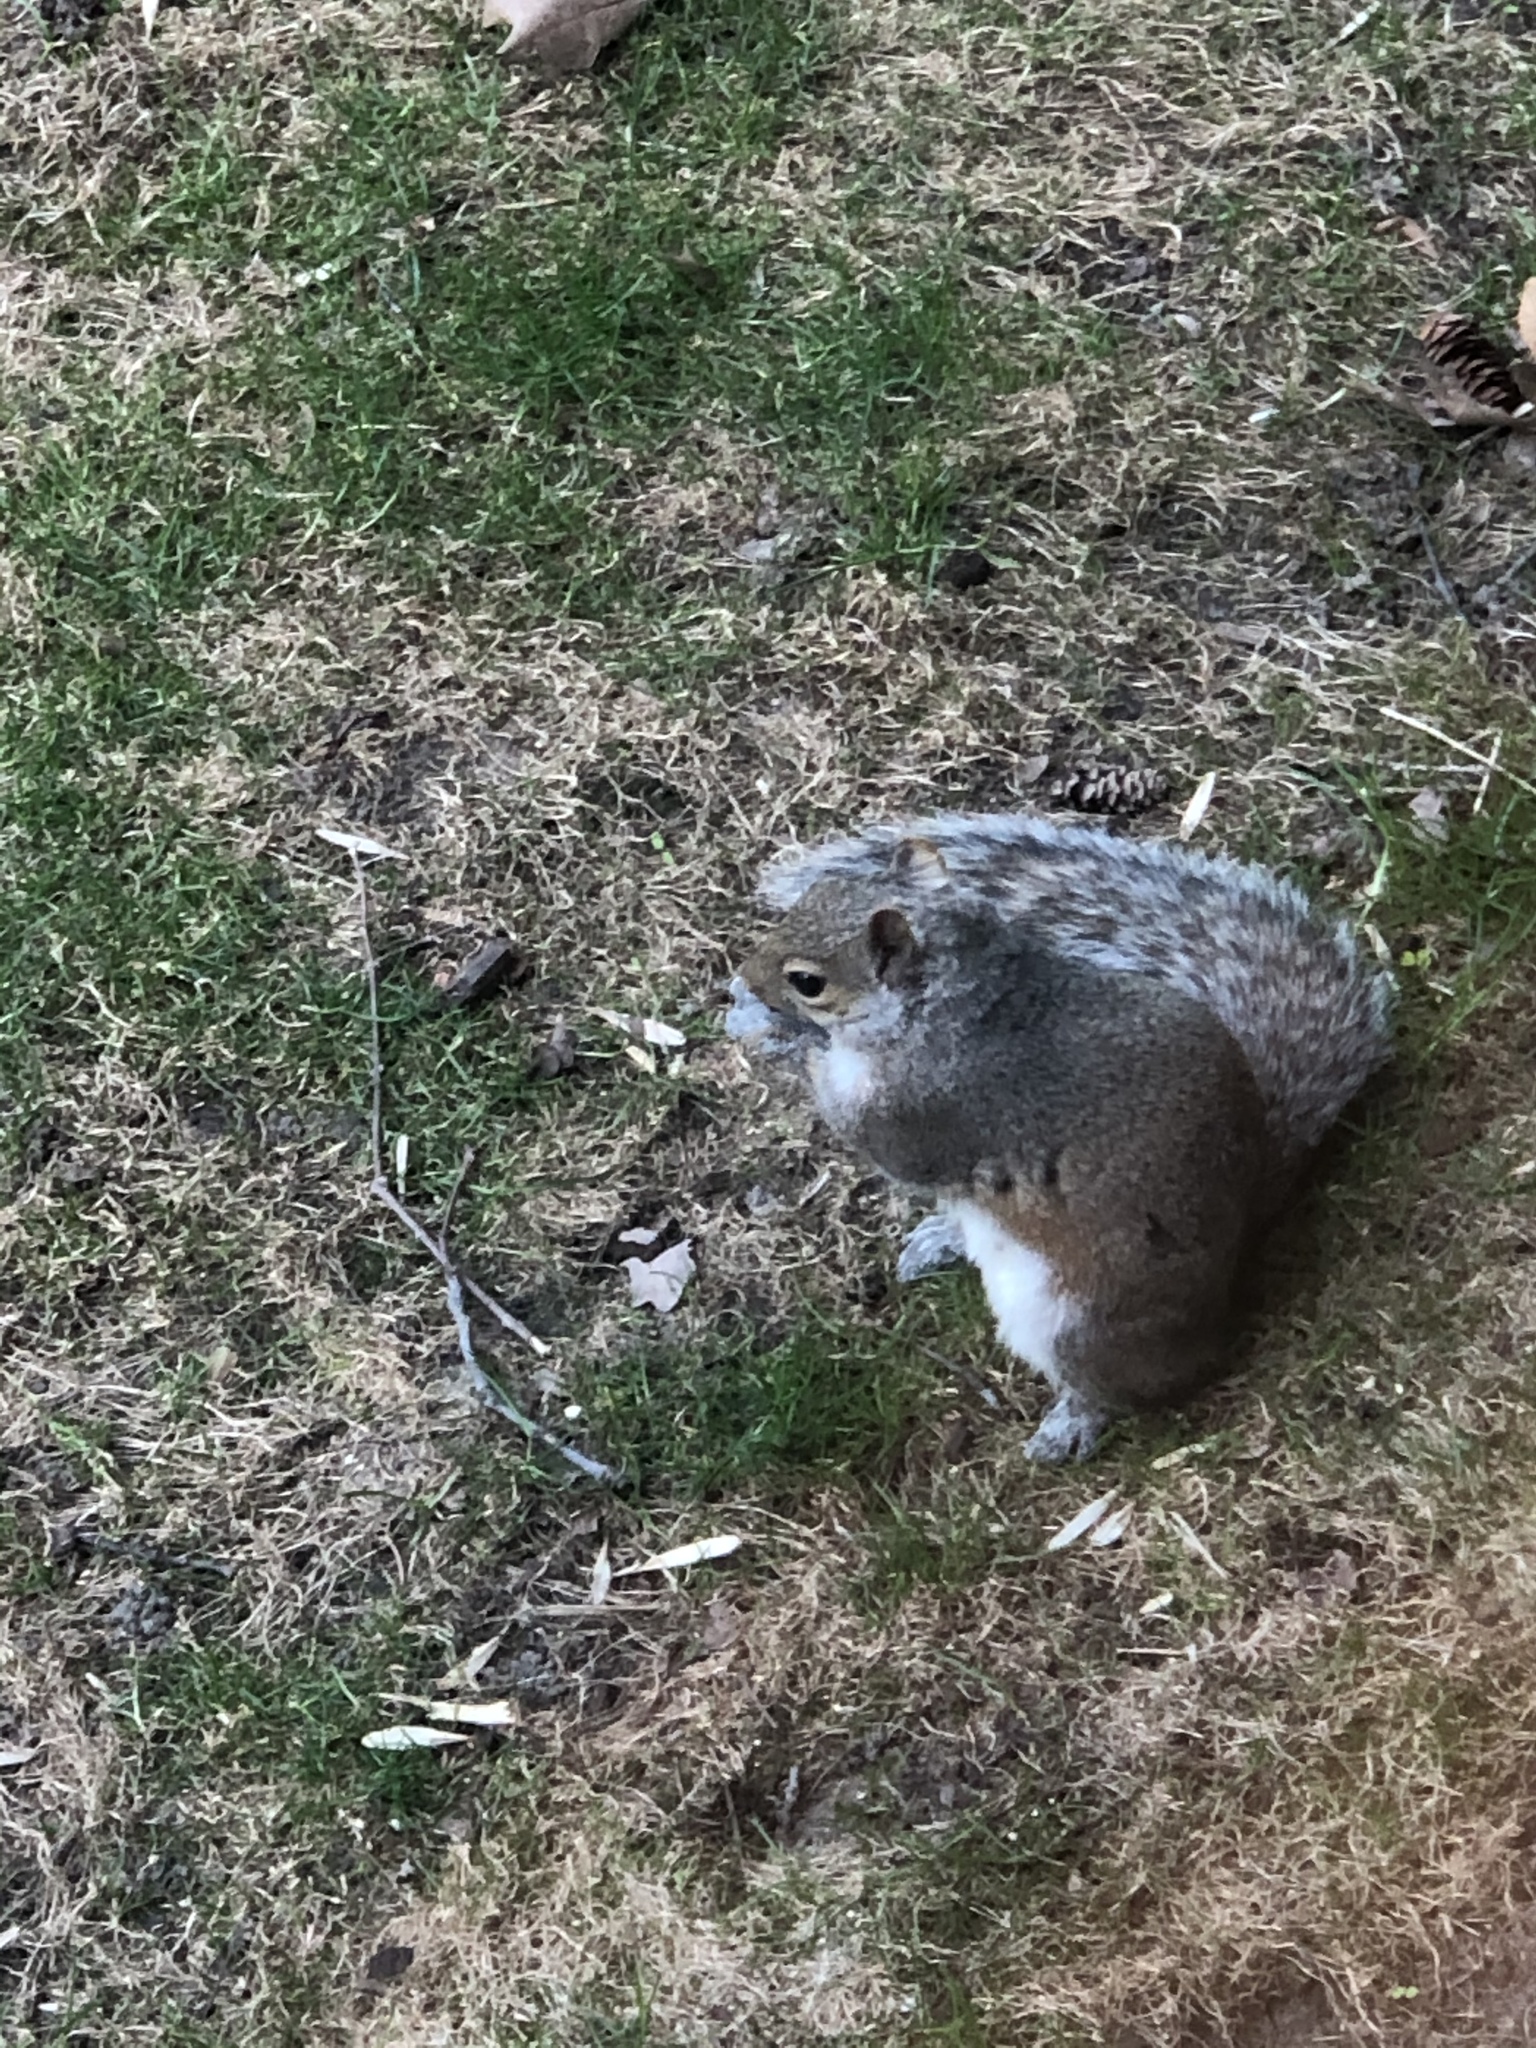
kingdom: Animalia
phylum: Chordata
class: Mammalia
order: Rodentia
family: Sciuridae
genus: Sciurus
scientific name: Sciurus carolinensis
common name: Eastern gray squirrel
